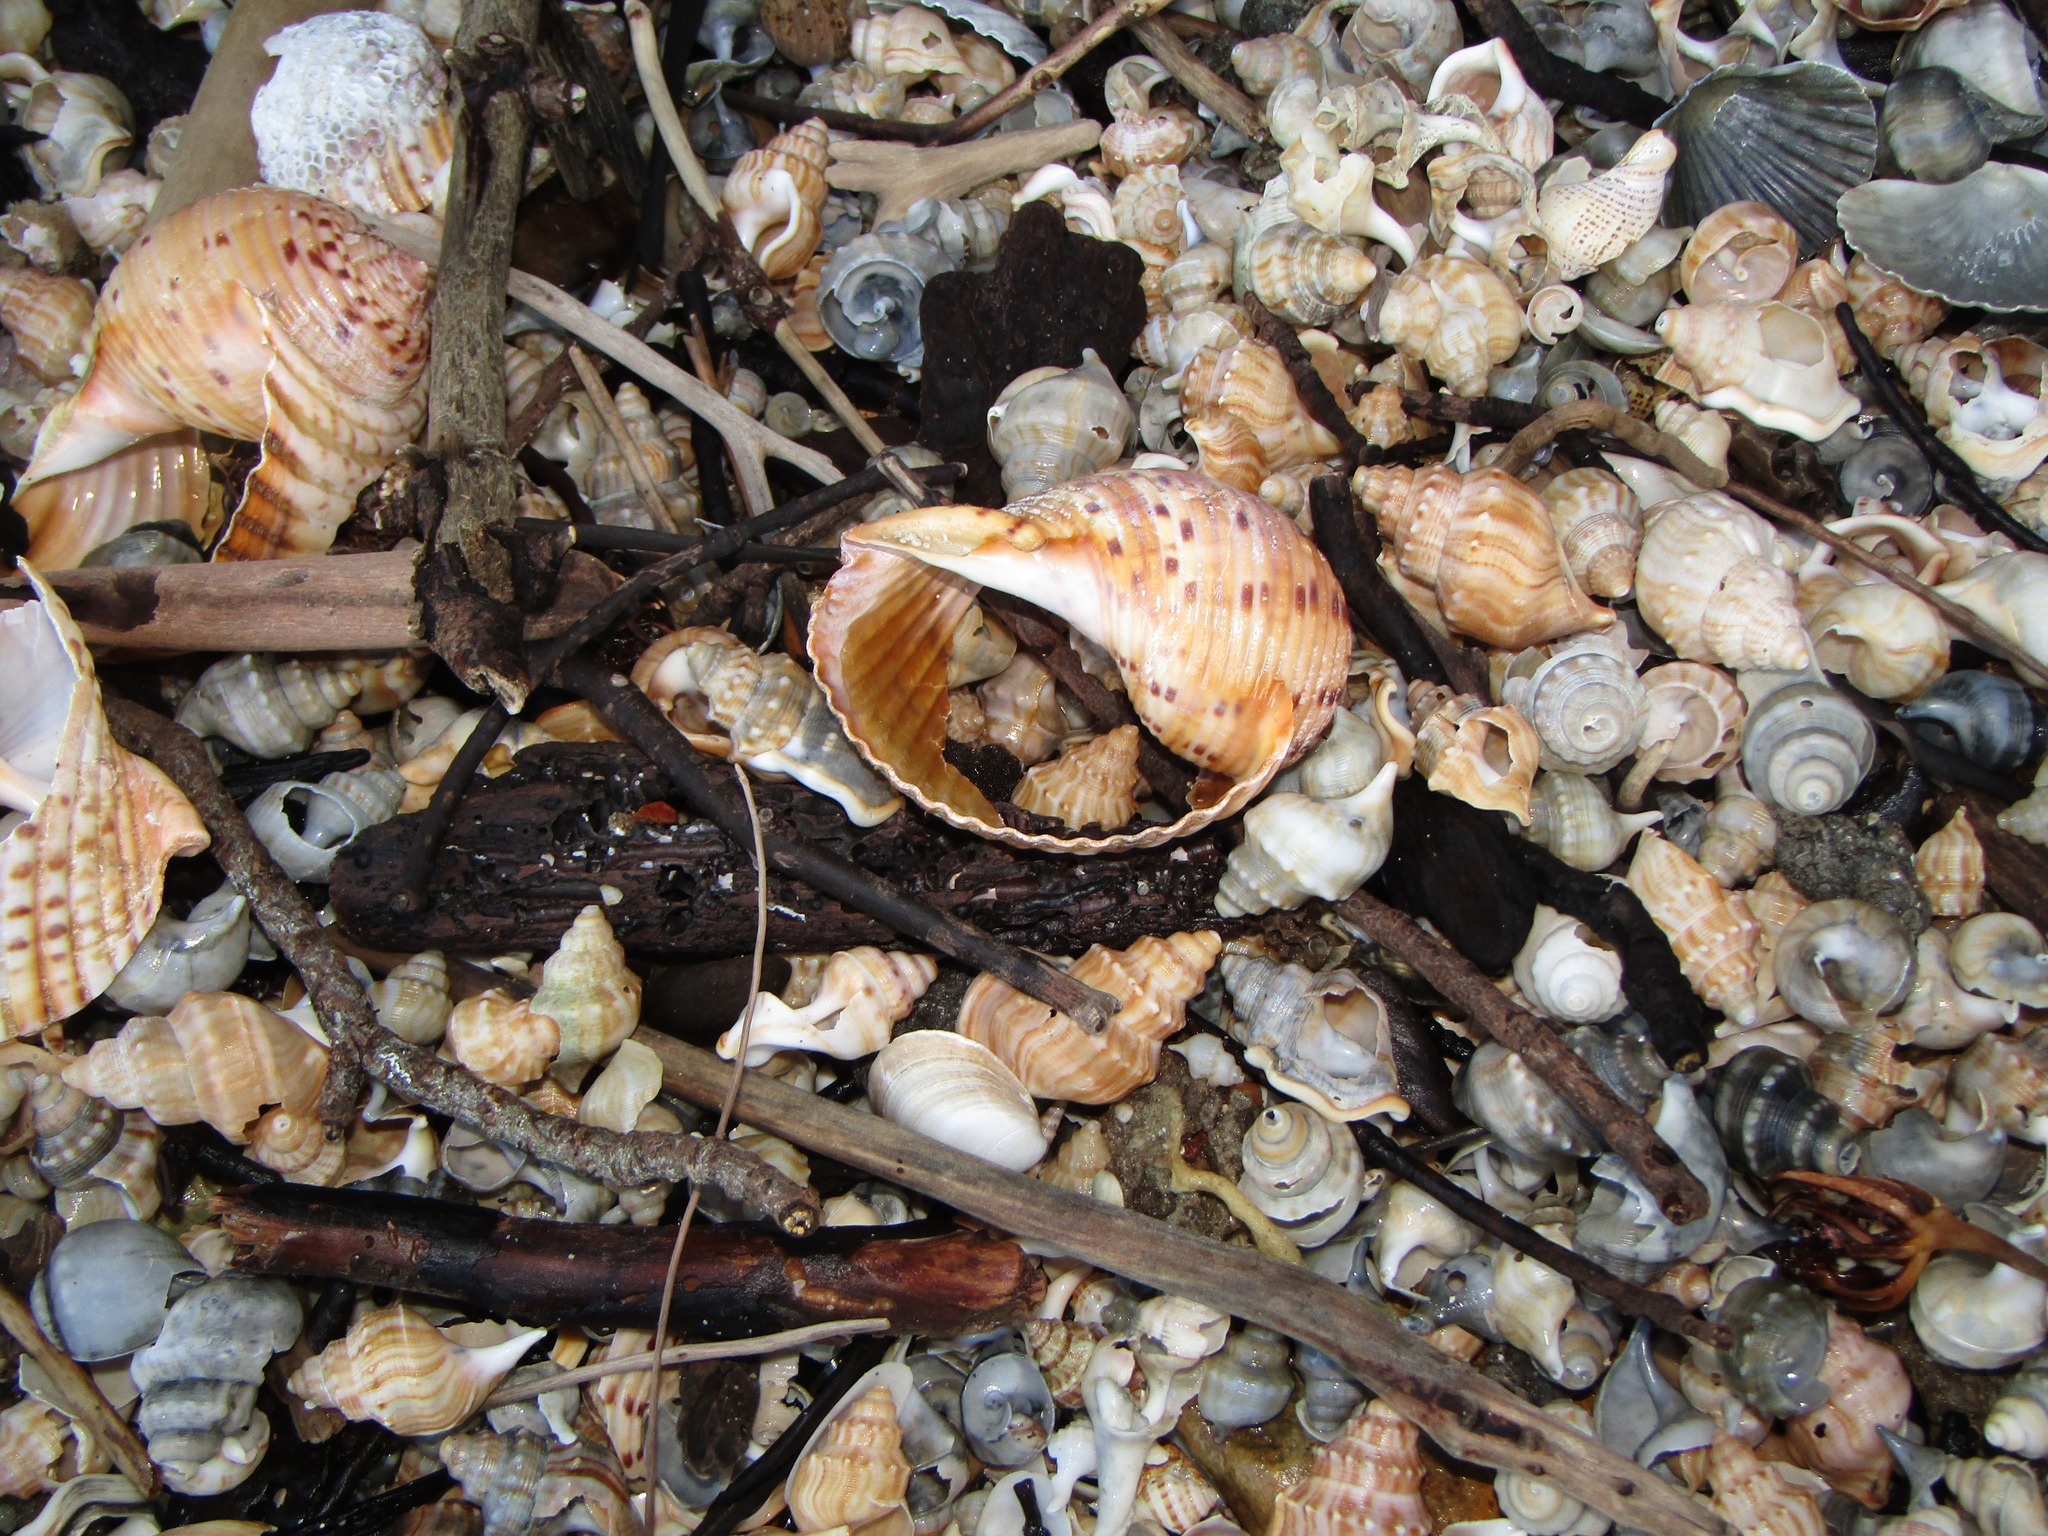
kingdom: Animalia
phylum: Mollusca
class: Gastropoda
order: Littorinimorpha
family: Struthiolariidae
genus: Struthiolaria
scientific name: Struthiolaria papulosa
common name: Large ostrich foot
